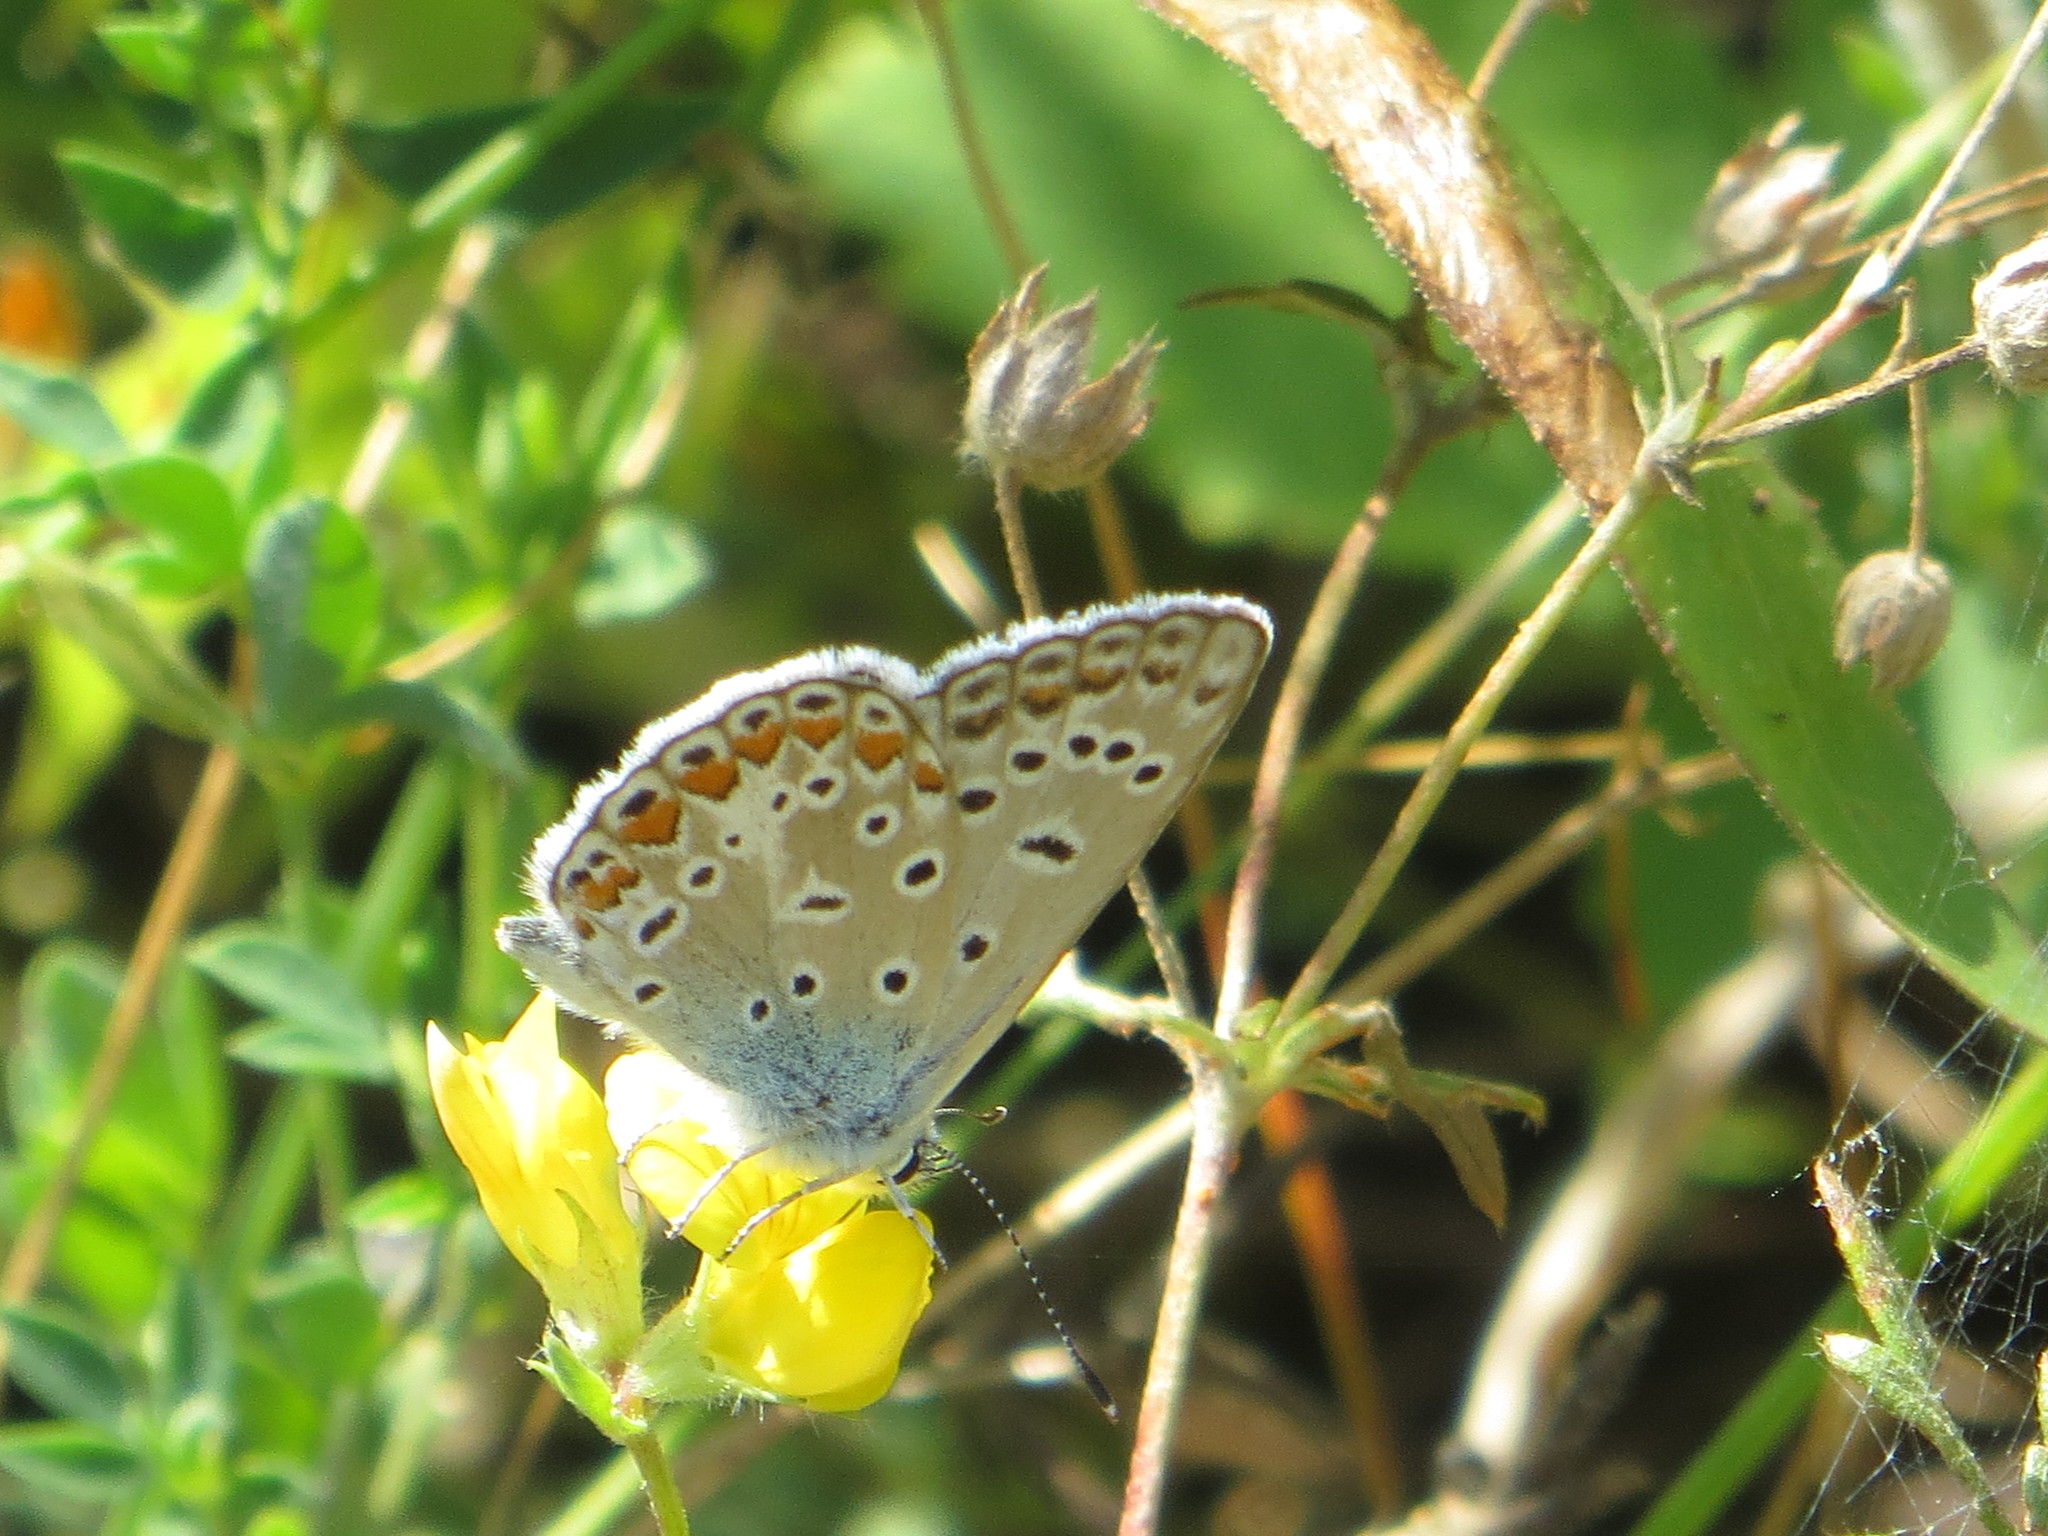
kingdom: Animalia
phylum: Arthropoda
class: Insecta
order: Lepidoptera
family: Lycaenidae
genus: Polyommatus
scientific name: Polyommatus icarus
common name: Common blue
